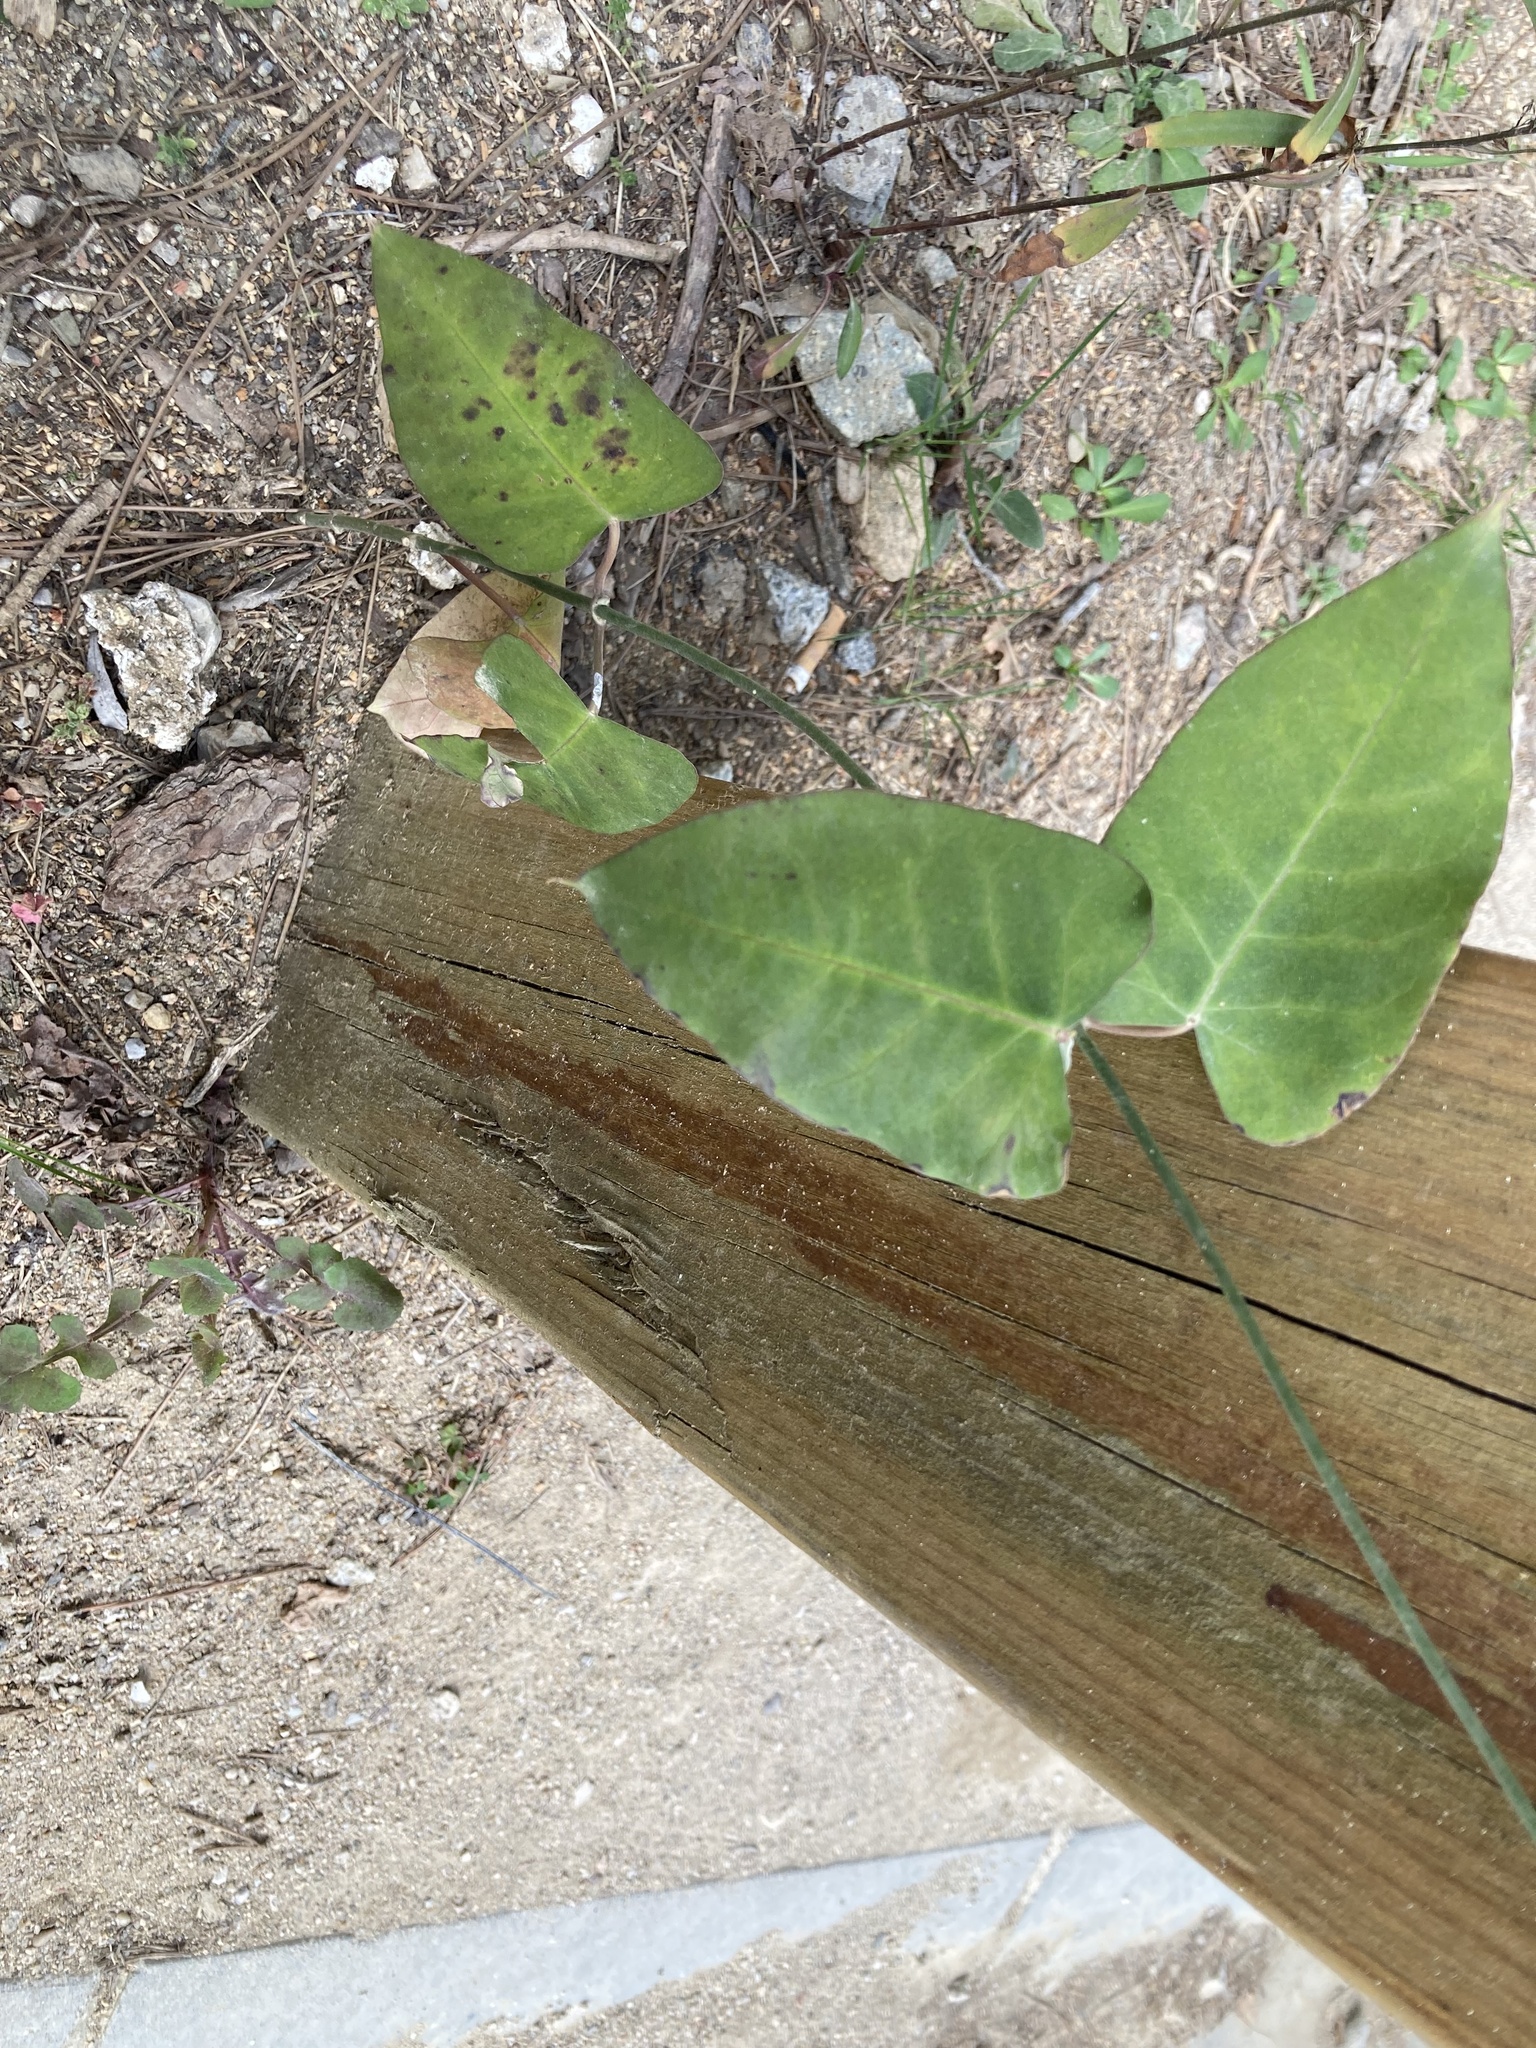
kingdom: Plantae
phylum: Tracheophyta
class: Magnoliopsida
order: Gentianales
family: Apocynaceae
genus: Araujia
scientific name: Araujia sericifera
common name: White bladderflower
